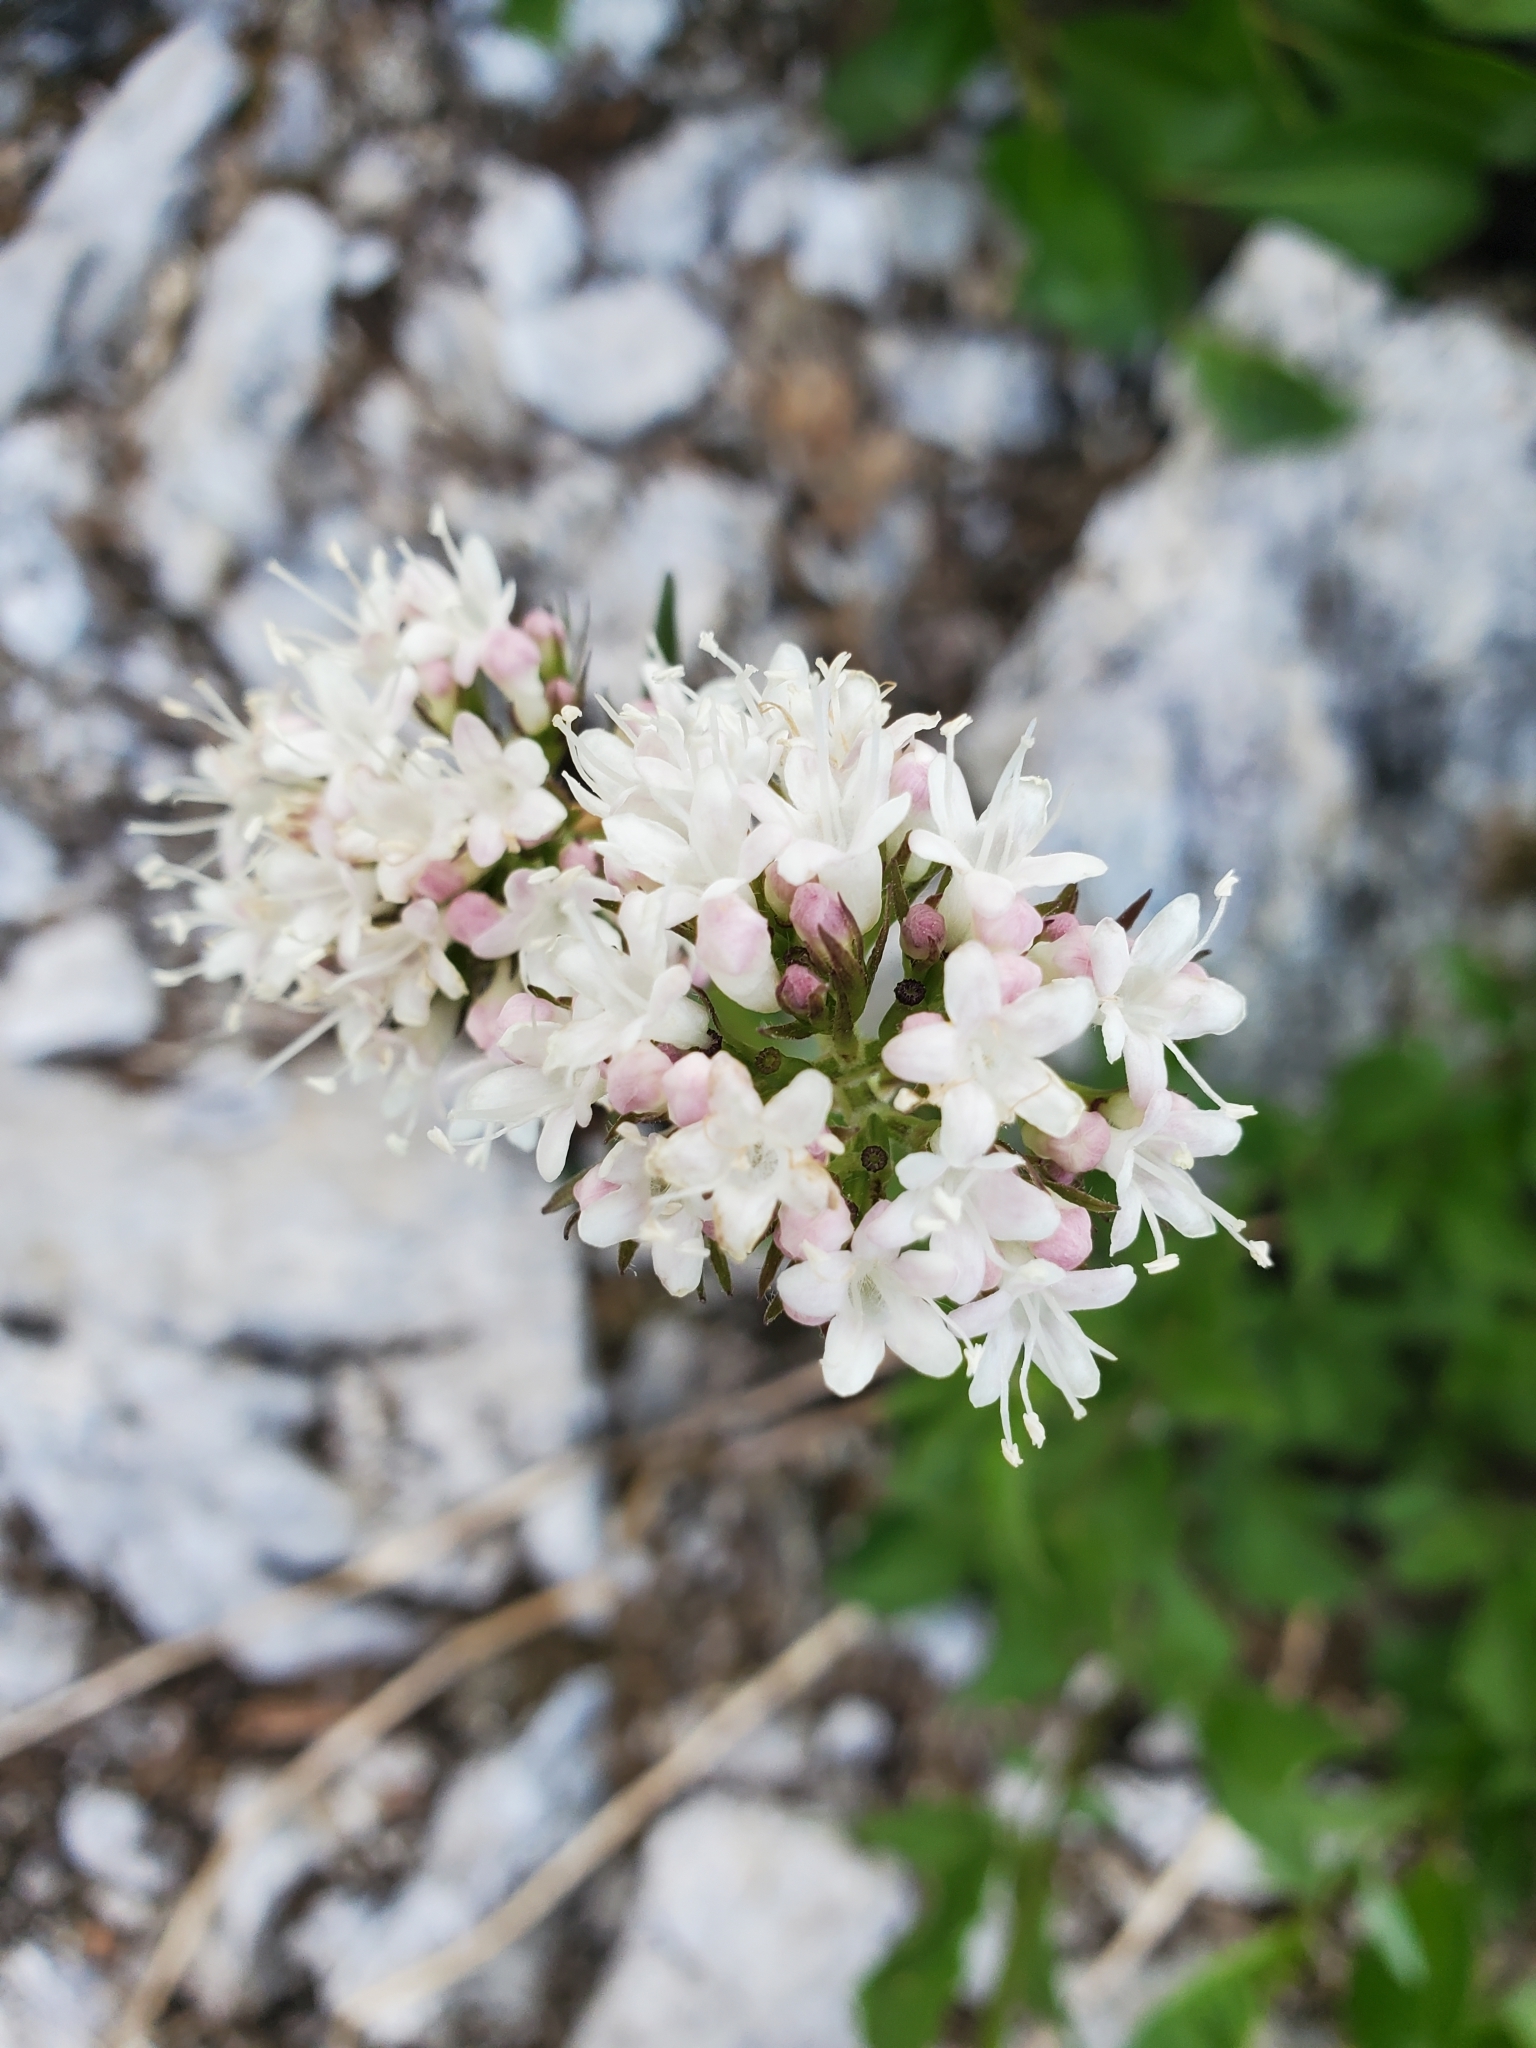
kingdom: Plantae
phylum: Tracheophyta
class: Magnoliopsida
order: Dipsacales
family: Caprifoliaceae
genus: Valeriana
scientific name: Valeriana sitchensis
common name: Pacific valerian
